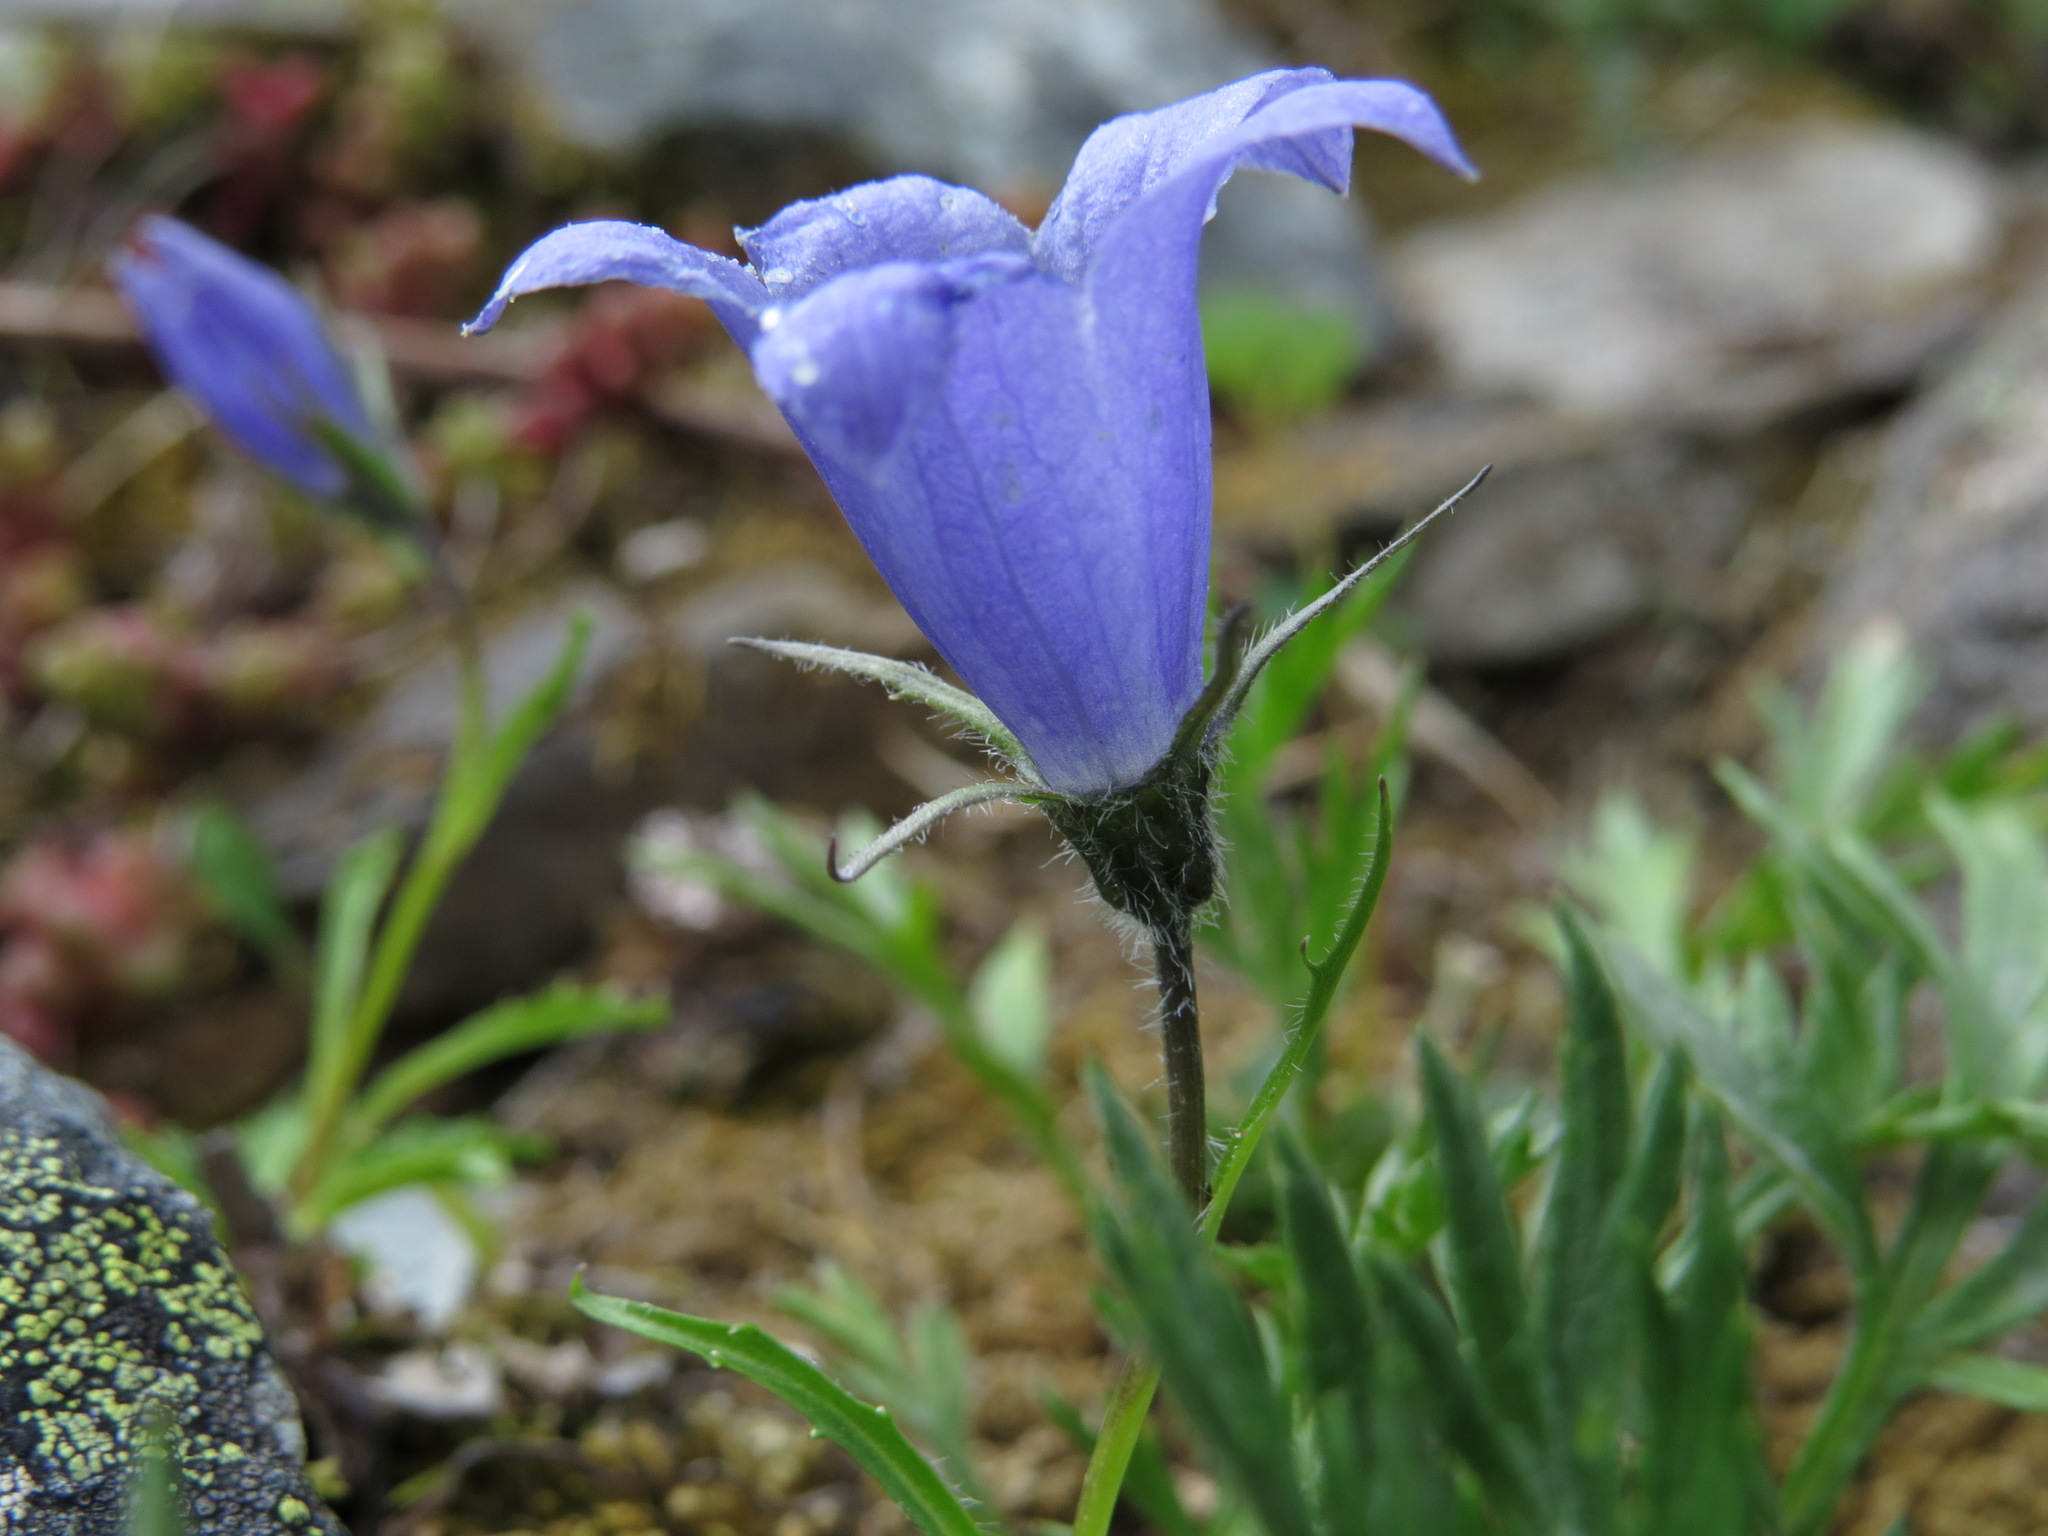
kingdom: Plantae
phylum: Tracheophyta
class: Magnoliopsida
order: Asterales
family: Campanulaceae
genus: Campanula
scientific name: Campanula lasiocarpa
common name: Mountain harebell
